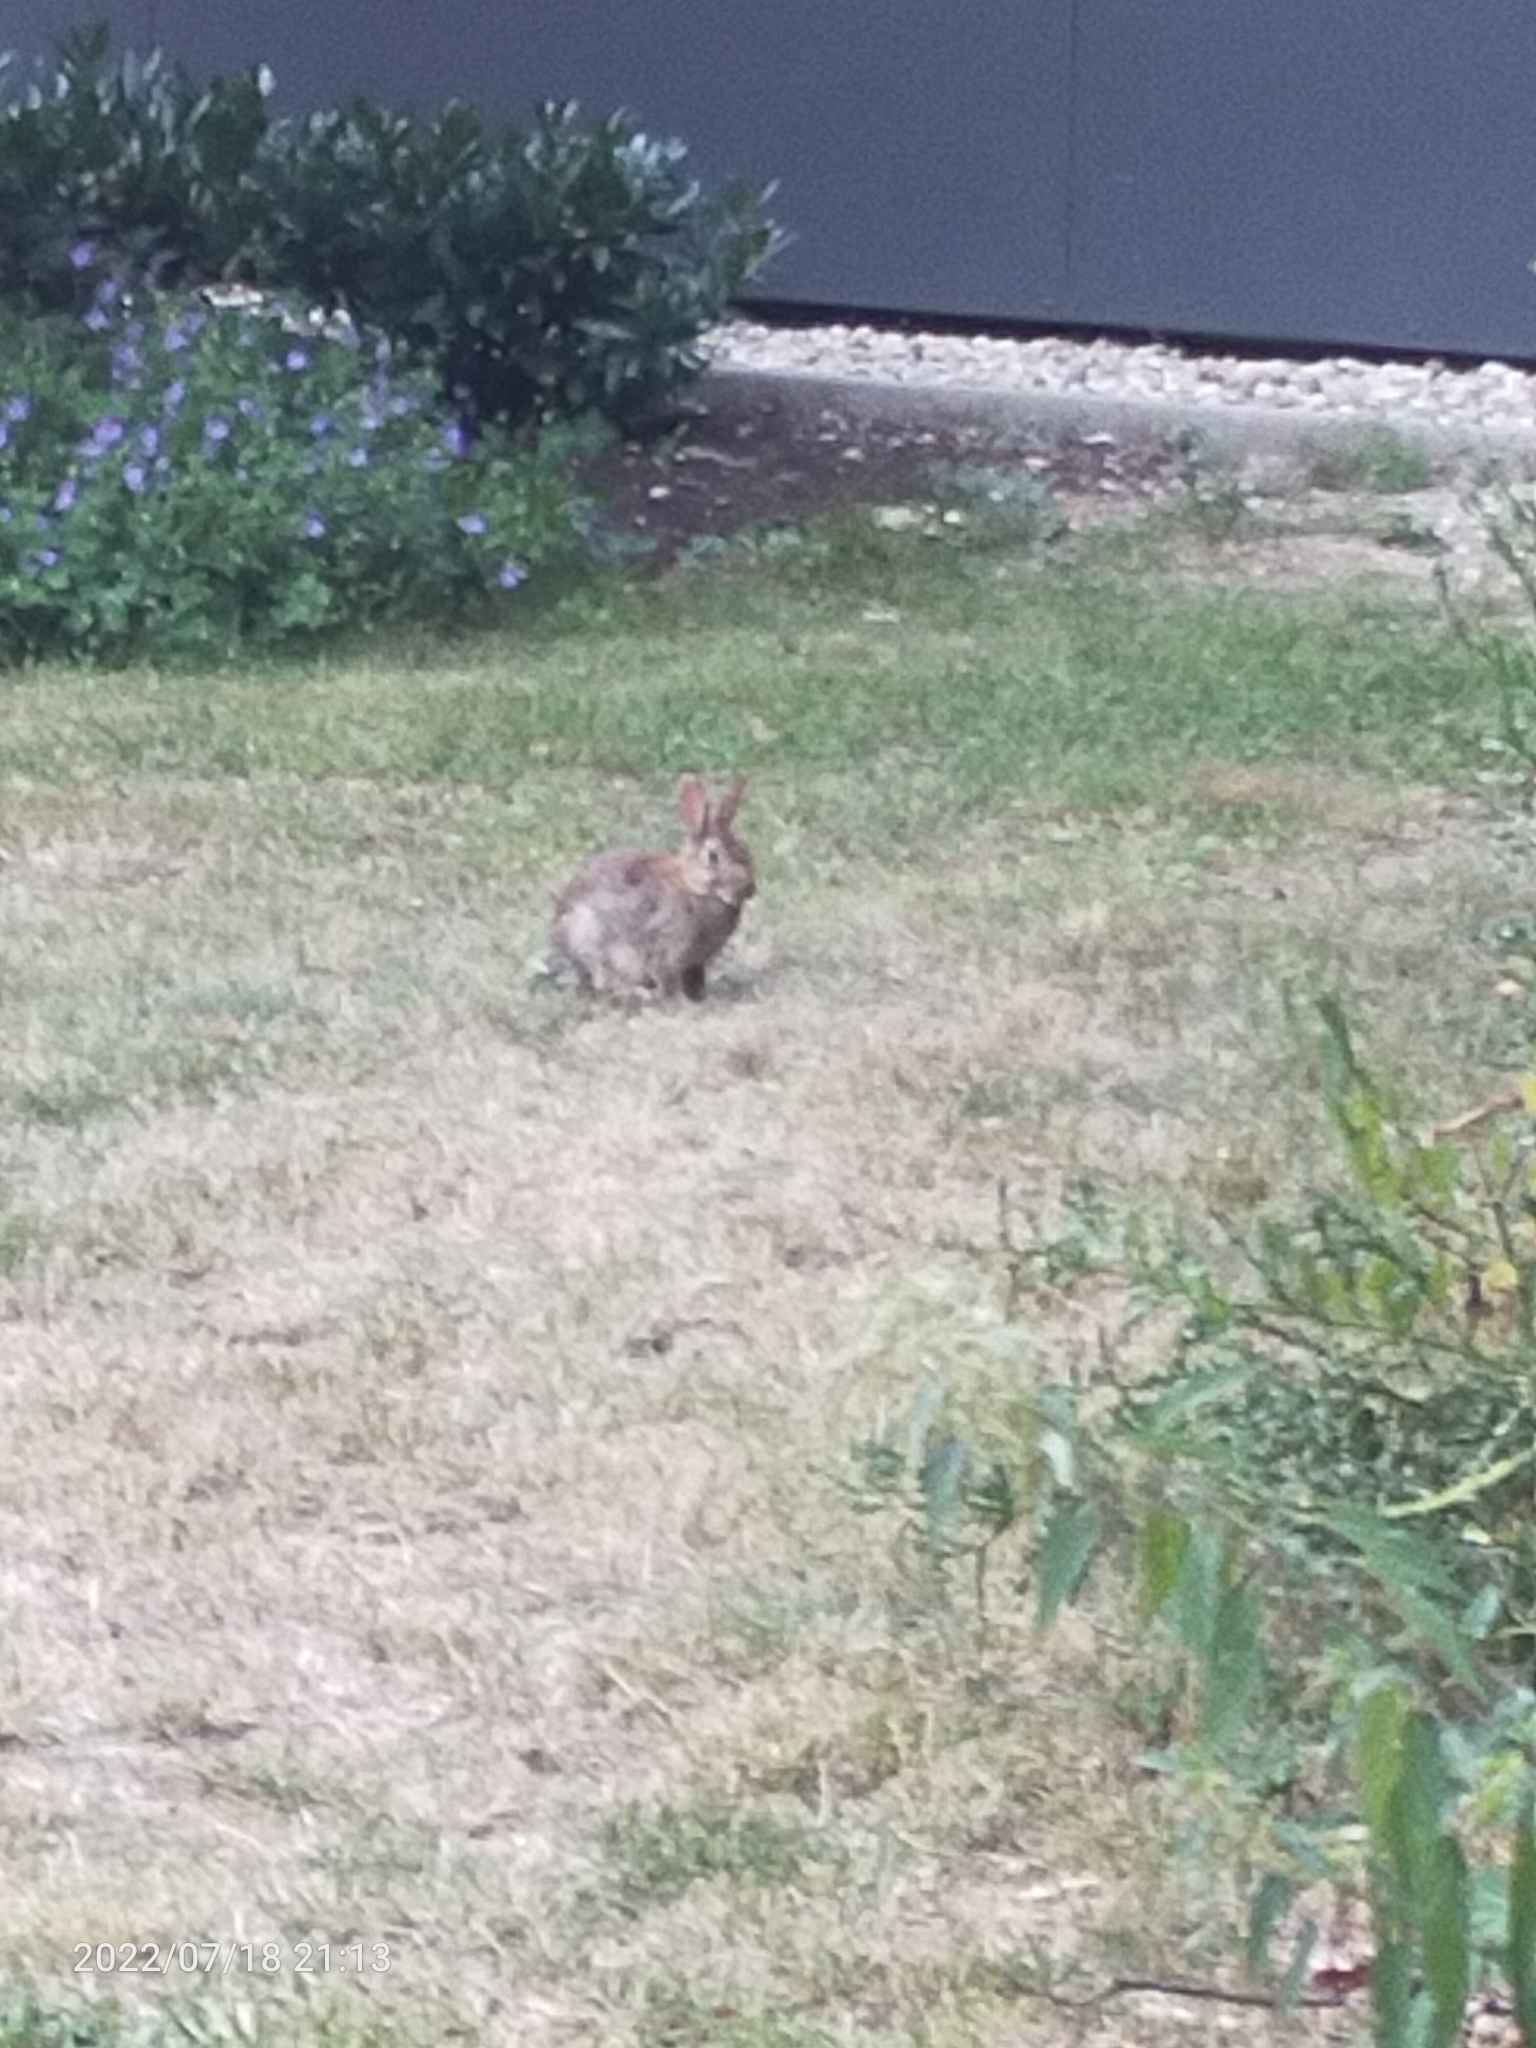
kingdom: Animalia
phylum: Chordata
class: Mammalia
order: Lagomorpha
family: Leporidae
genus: Oryctolagus
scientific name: Oryctolagus cuniculus
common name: European rabbit
